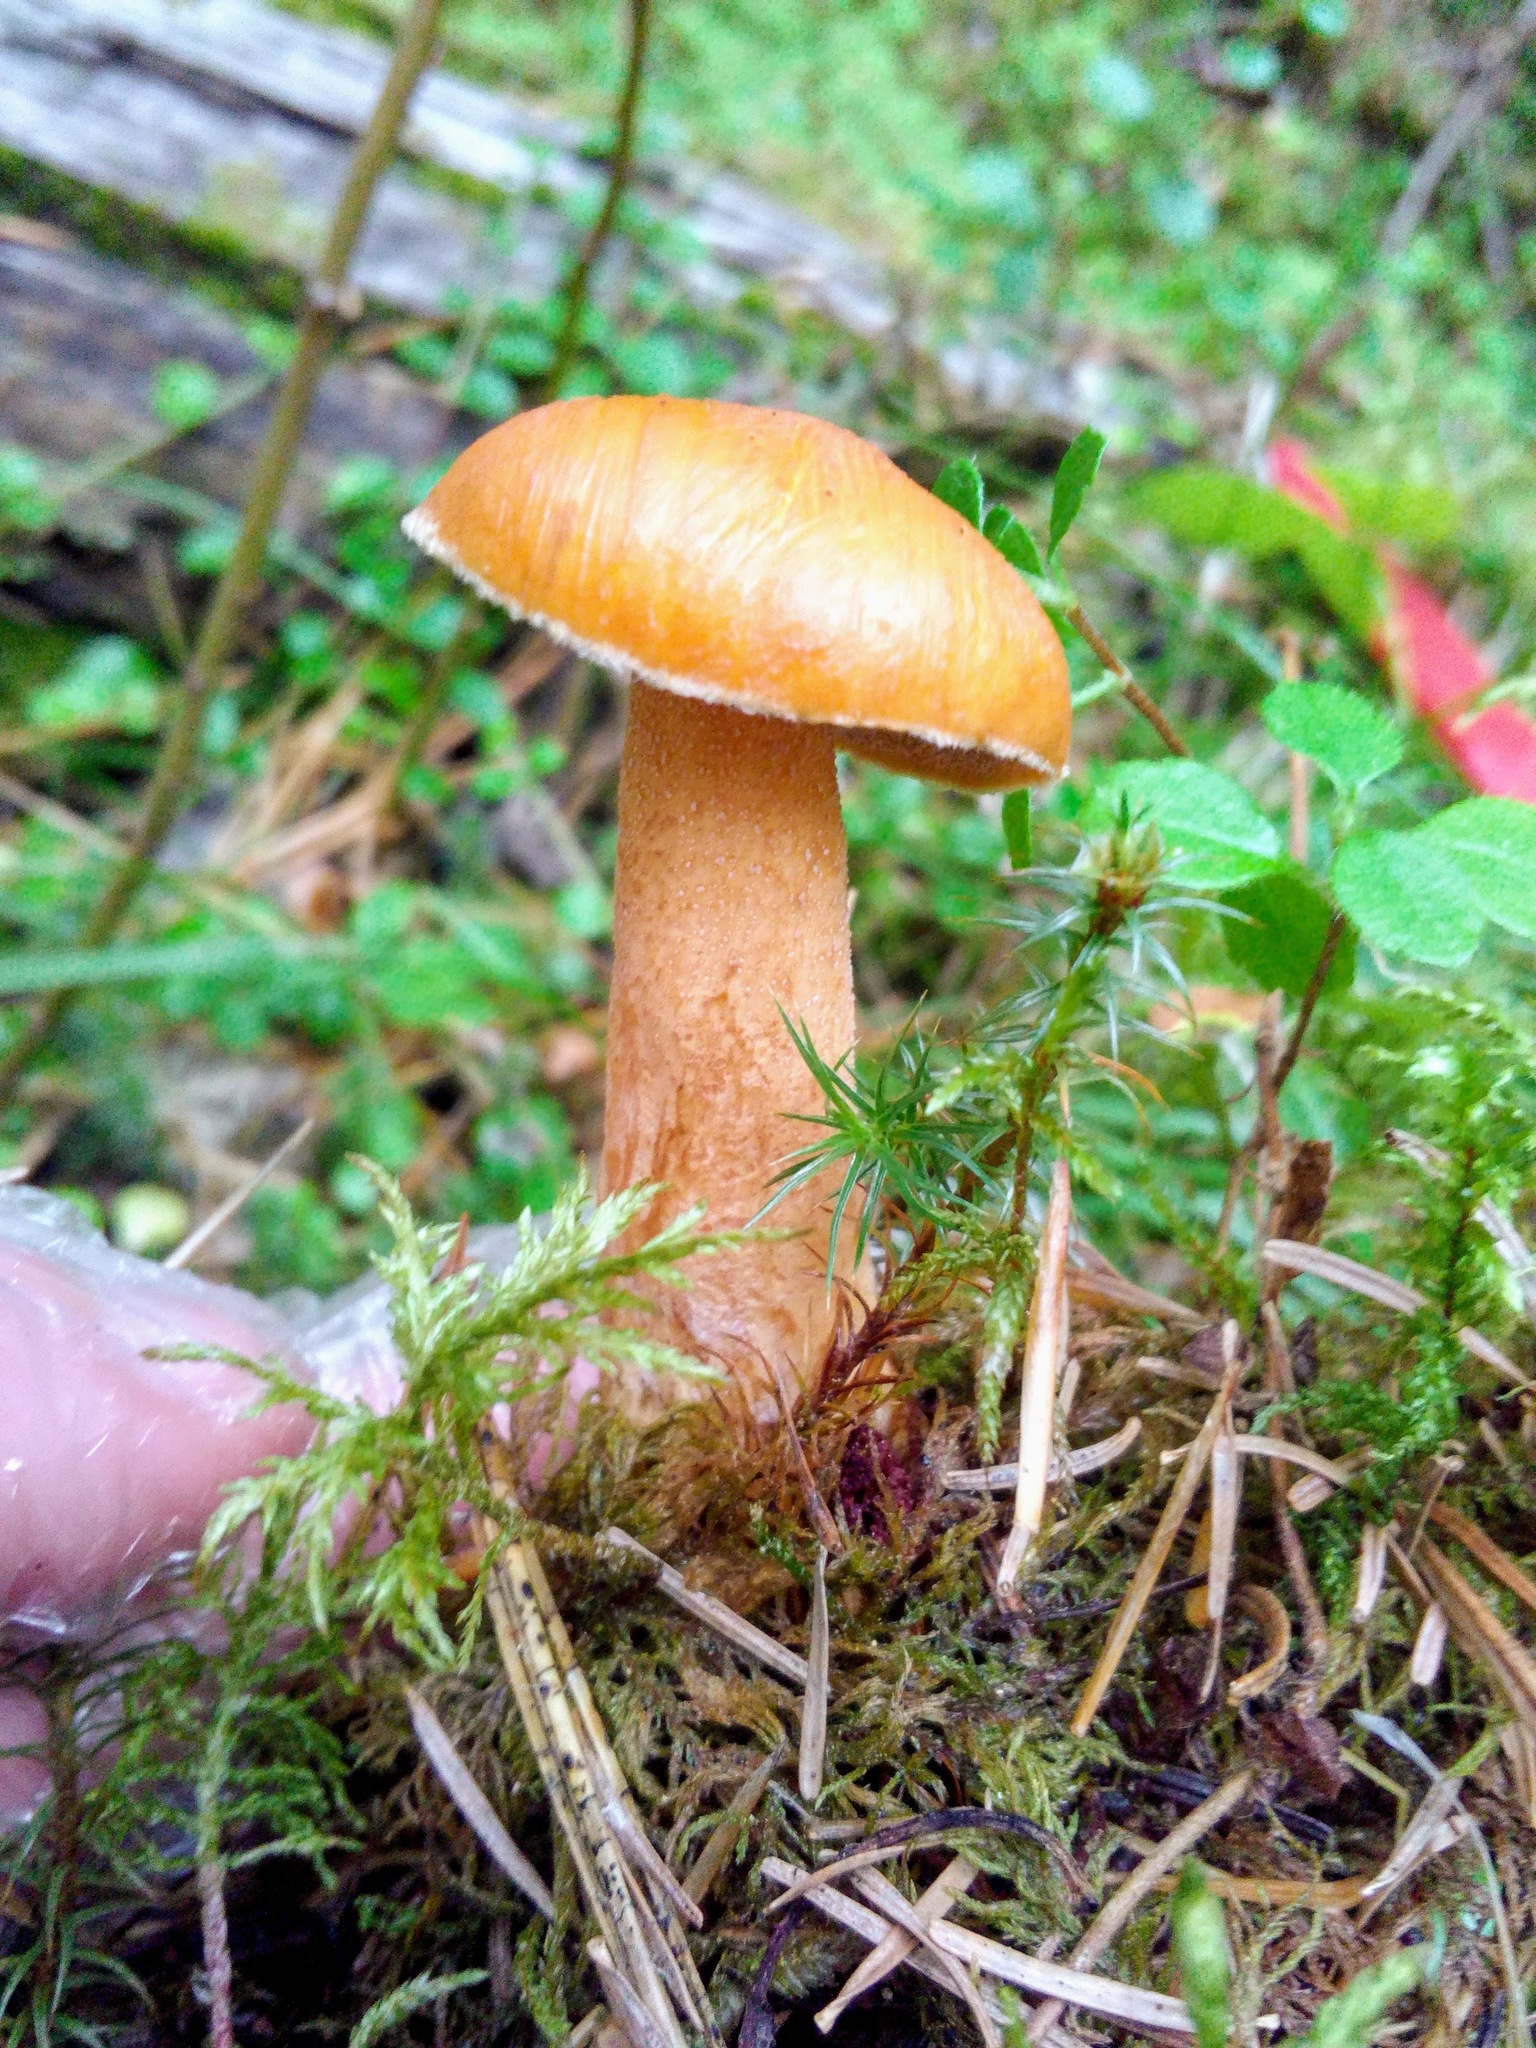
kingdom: Fungi
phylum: Basidiomycota
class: Agaricomycetes
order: Boletales
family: Suillaceae
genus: Suillus
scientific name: Suillus plorans
